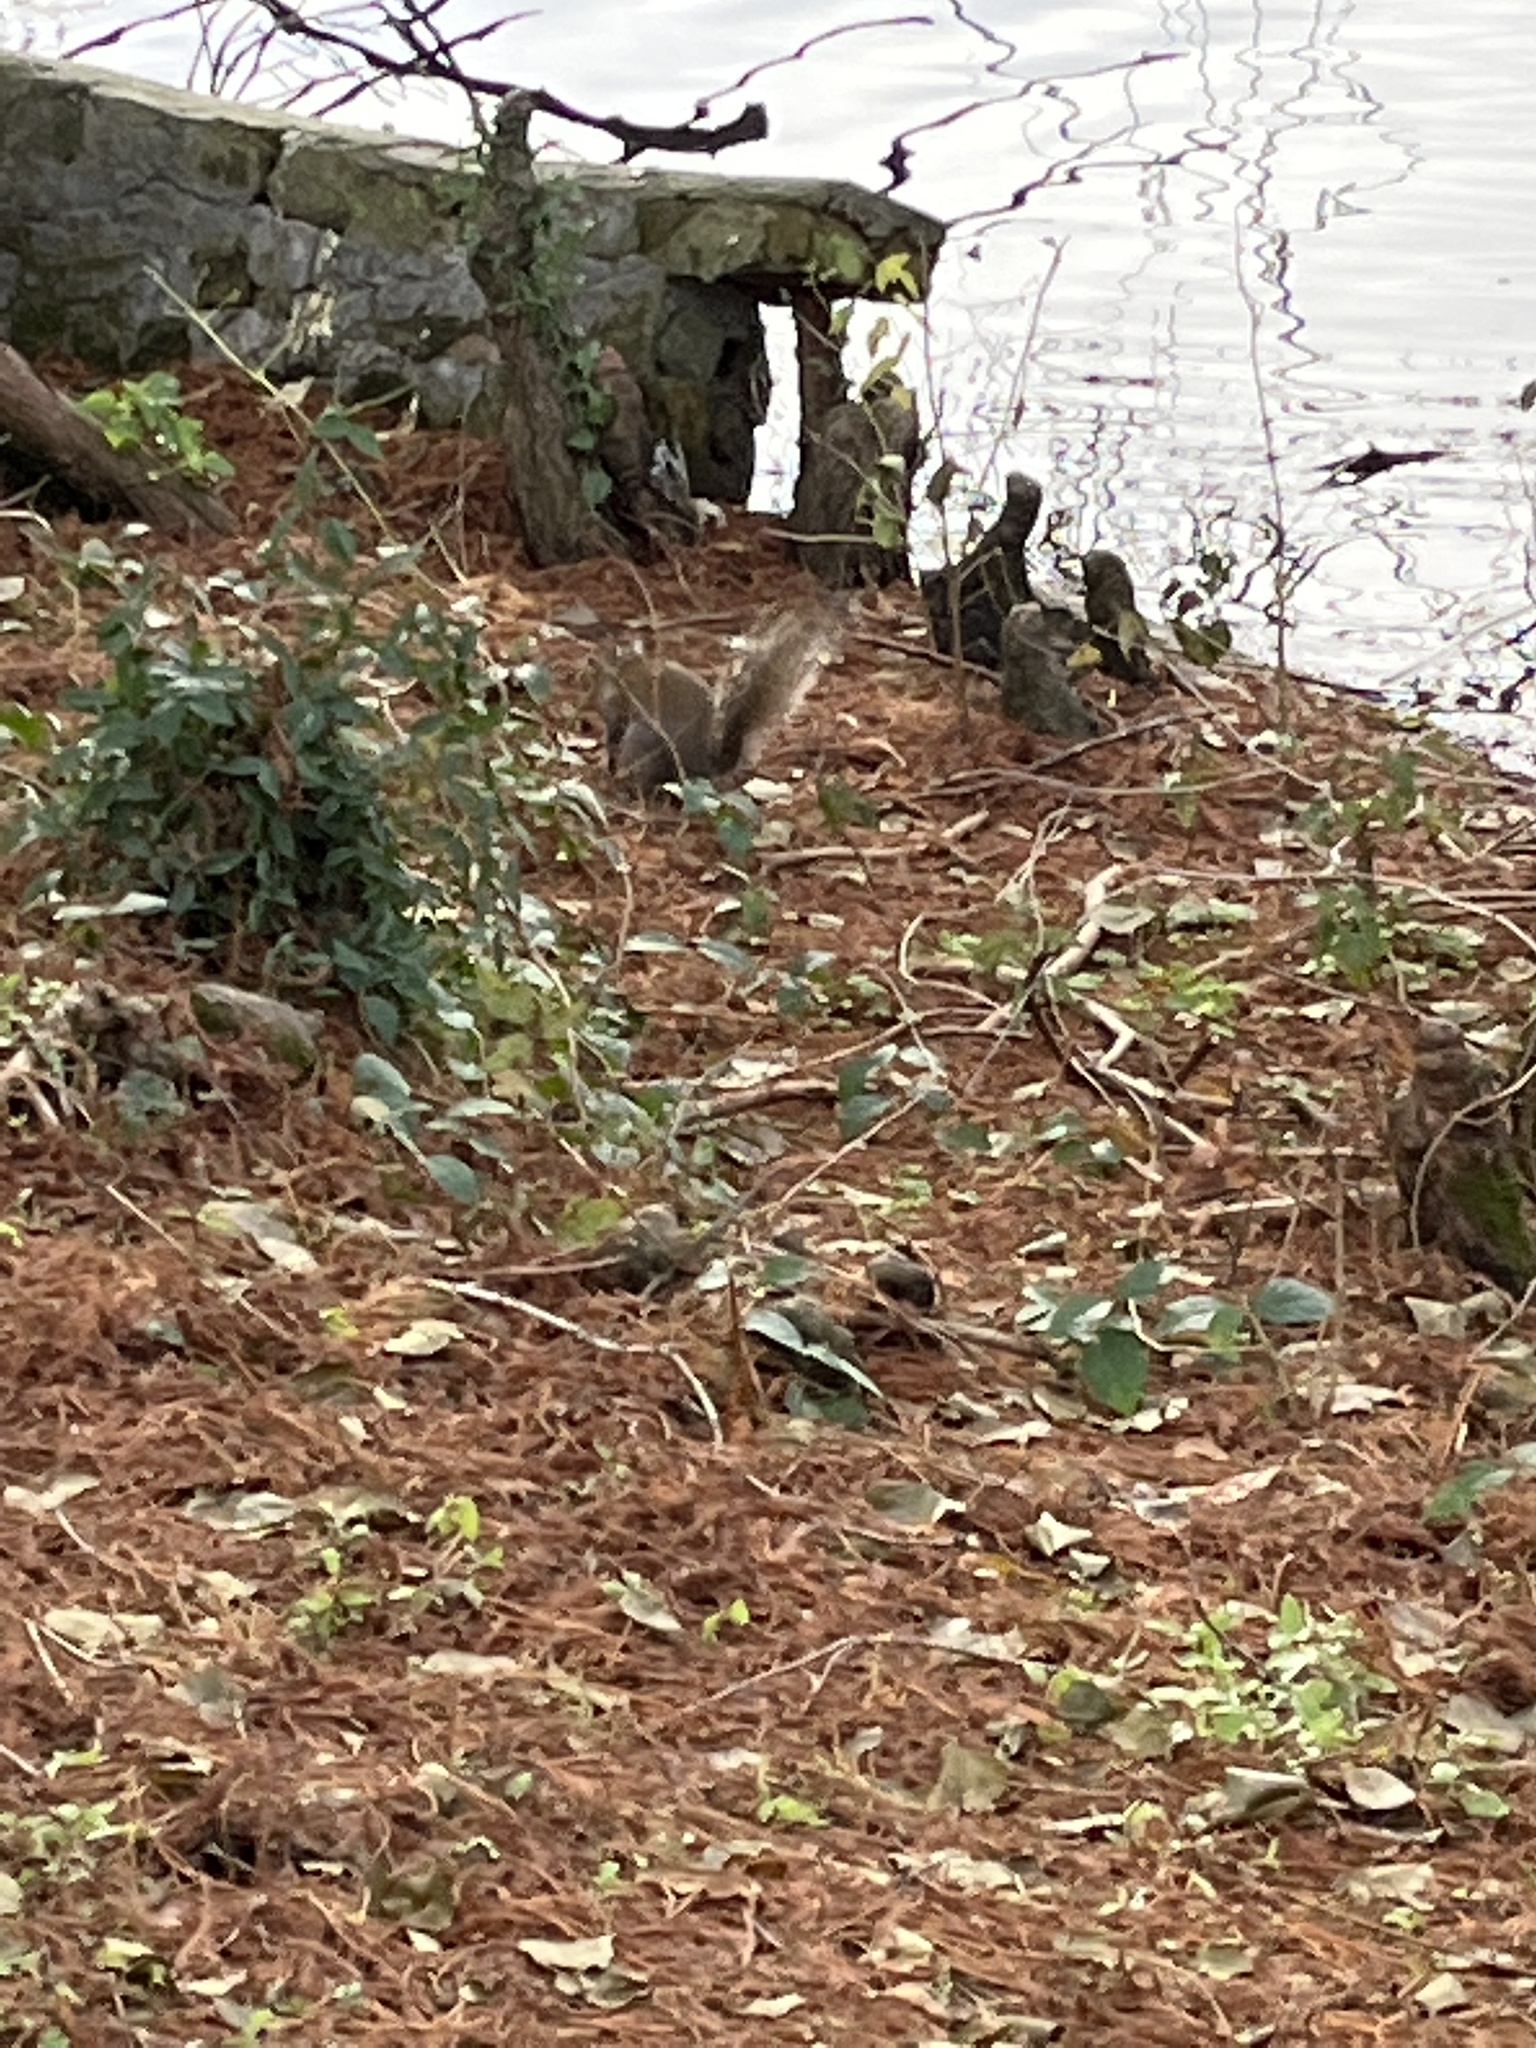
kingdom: Animalia
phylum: Chordata
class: Mammalia
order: Rodentia
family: Sciuridae
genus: Sciurus
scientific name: Sciurus carolinensis
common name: Eastern gray squirrel
